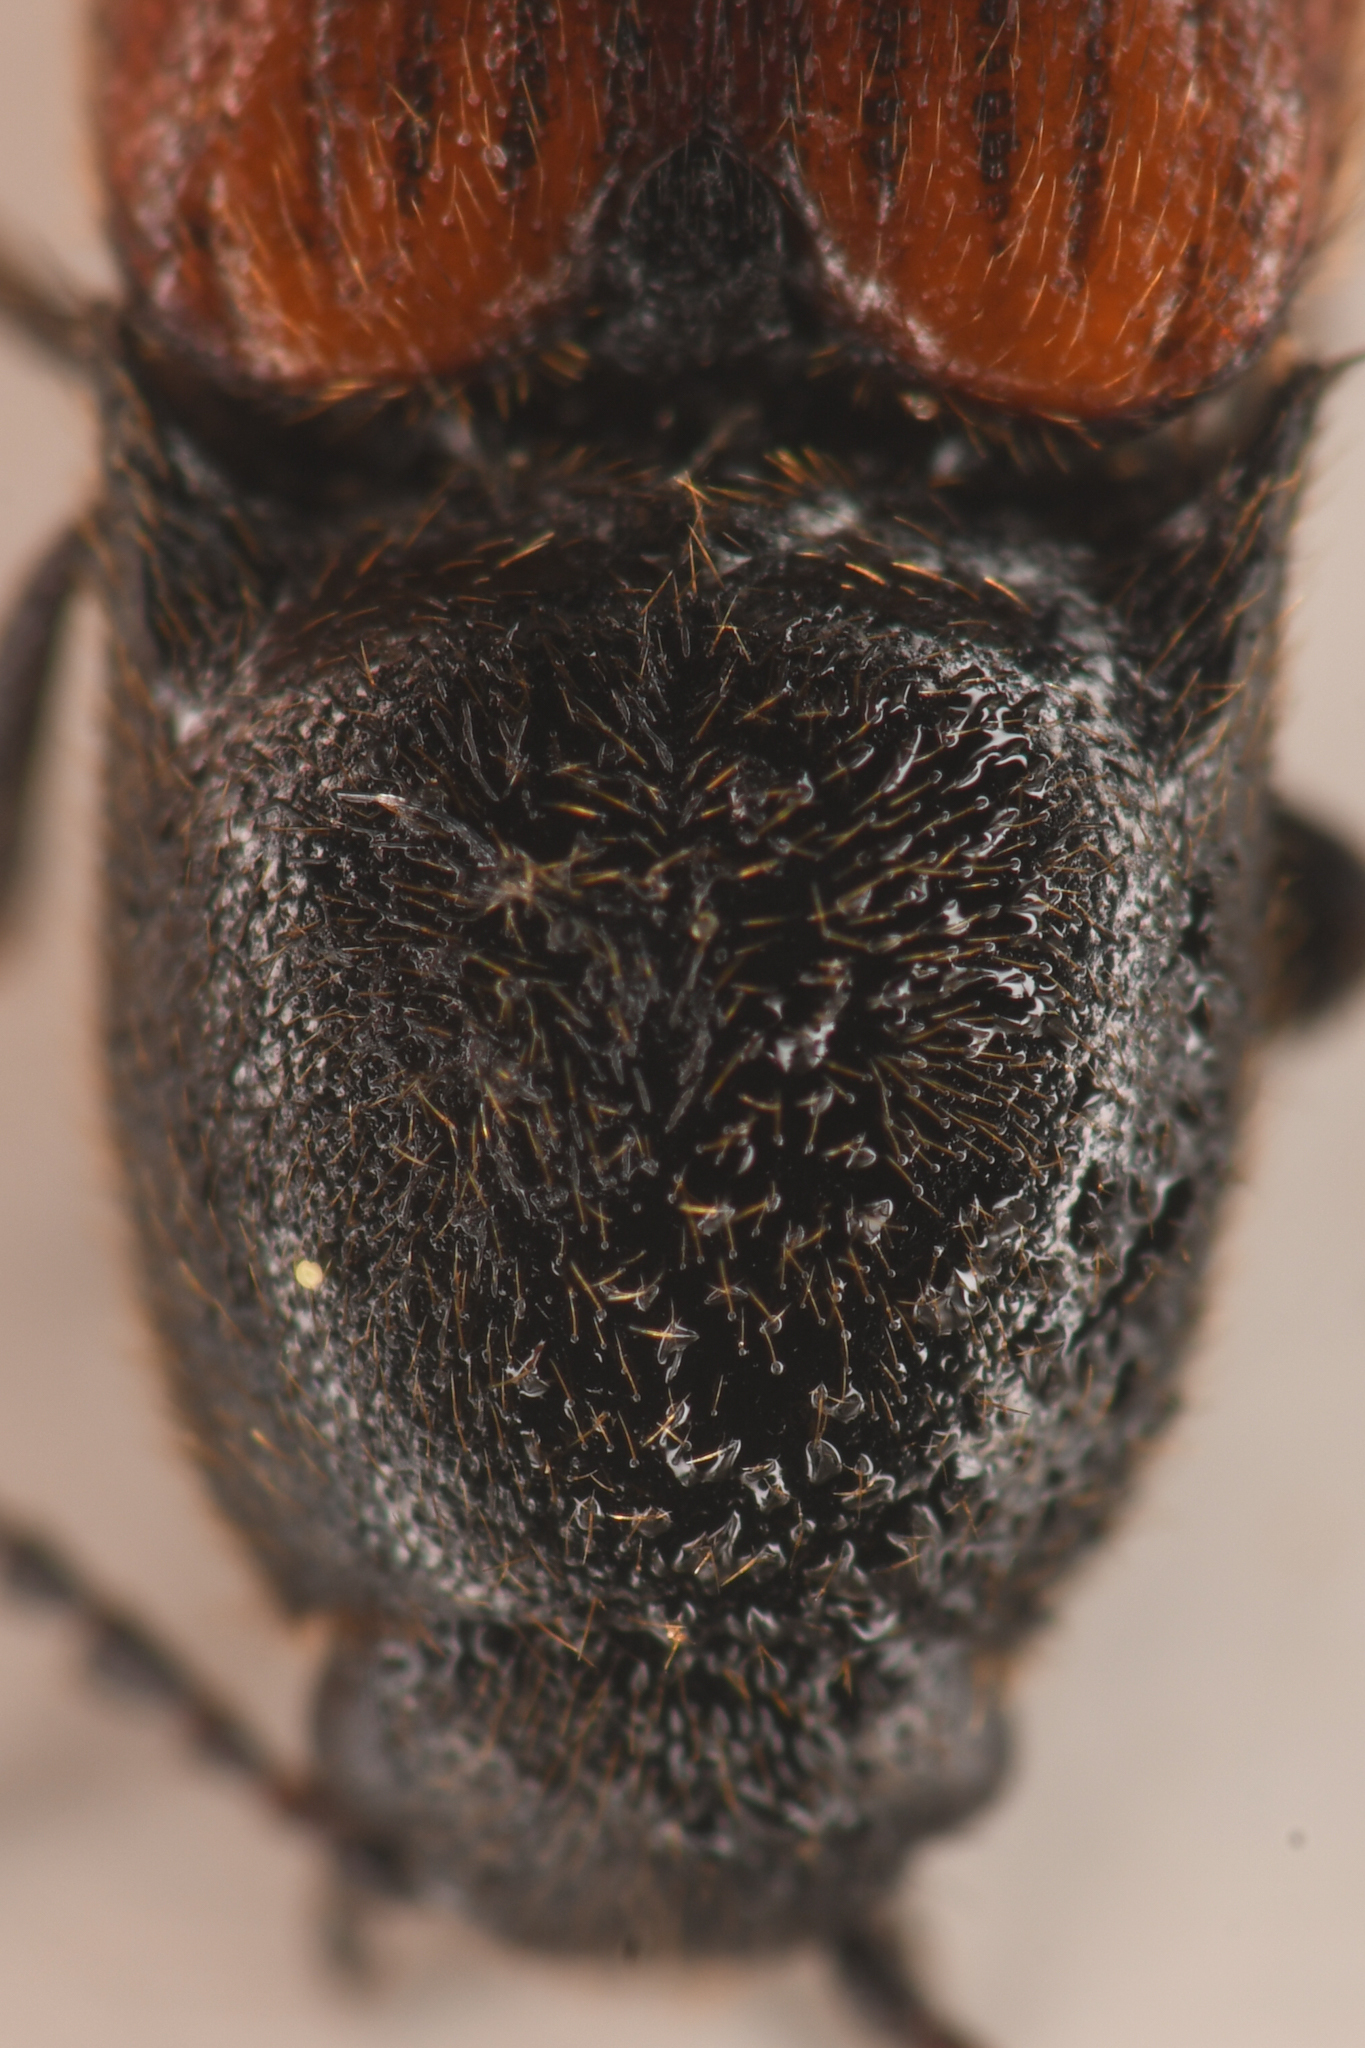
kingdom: Animalia
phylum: Arthropoda
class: Insecta
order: Coleoptera
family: Elateridae
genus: Ampedus
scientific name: Ampedus occidentalis
